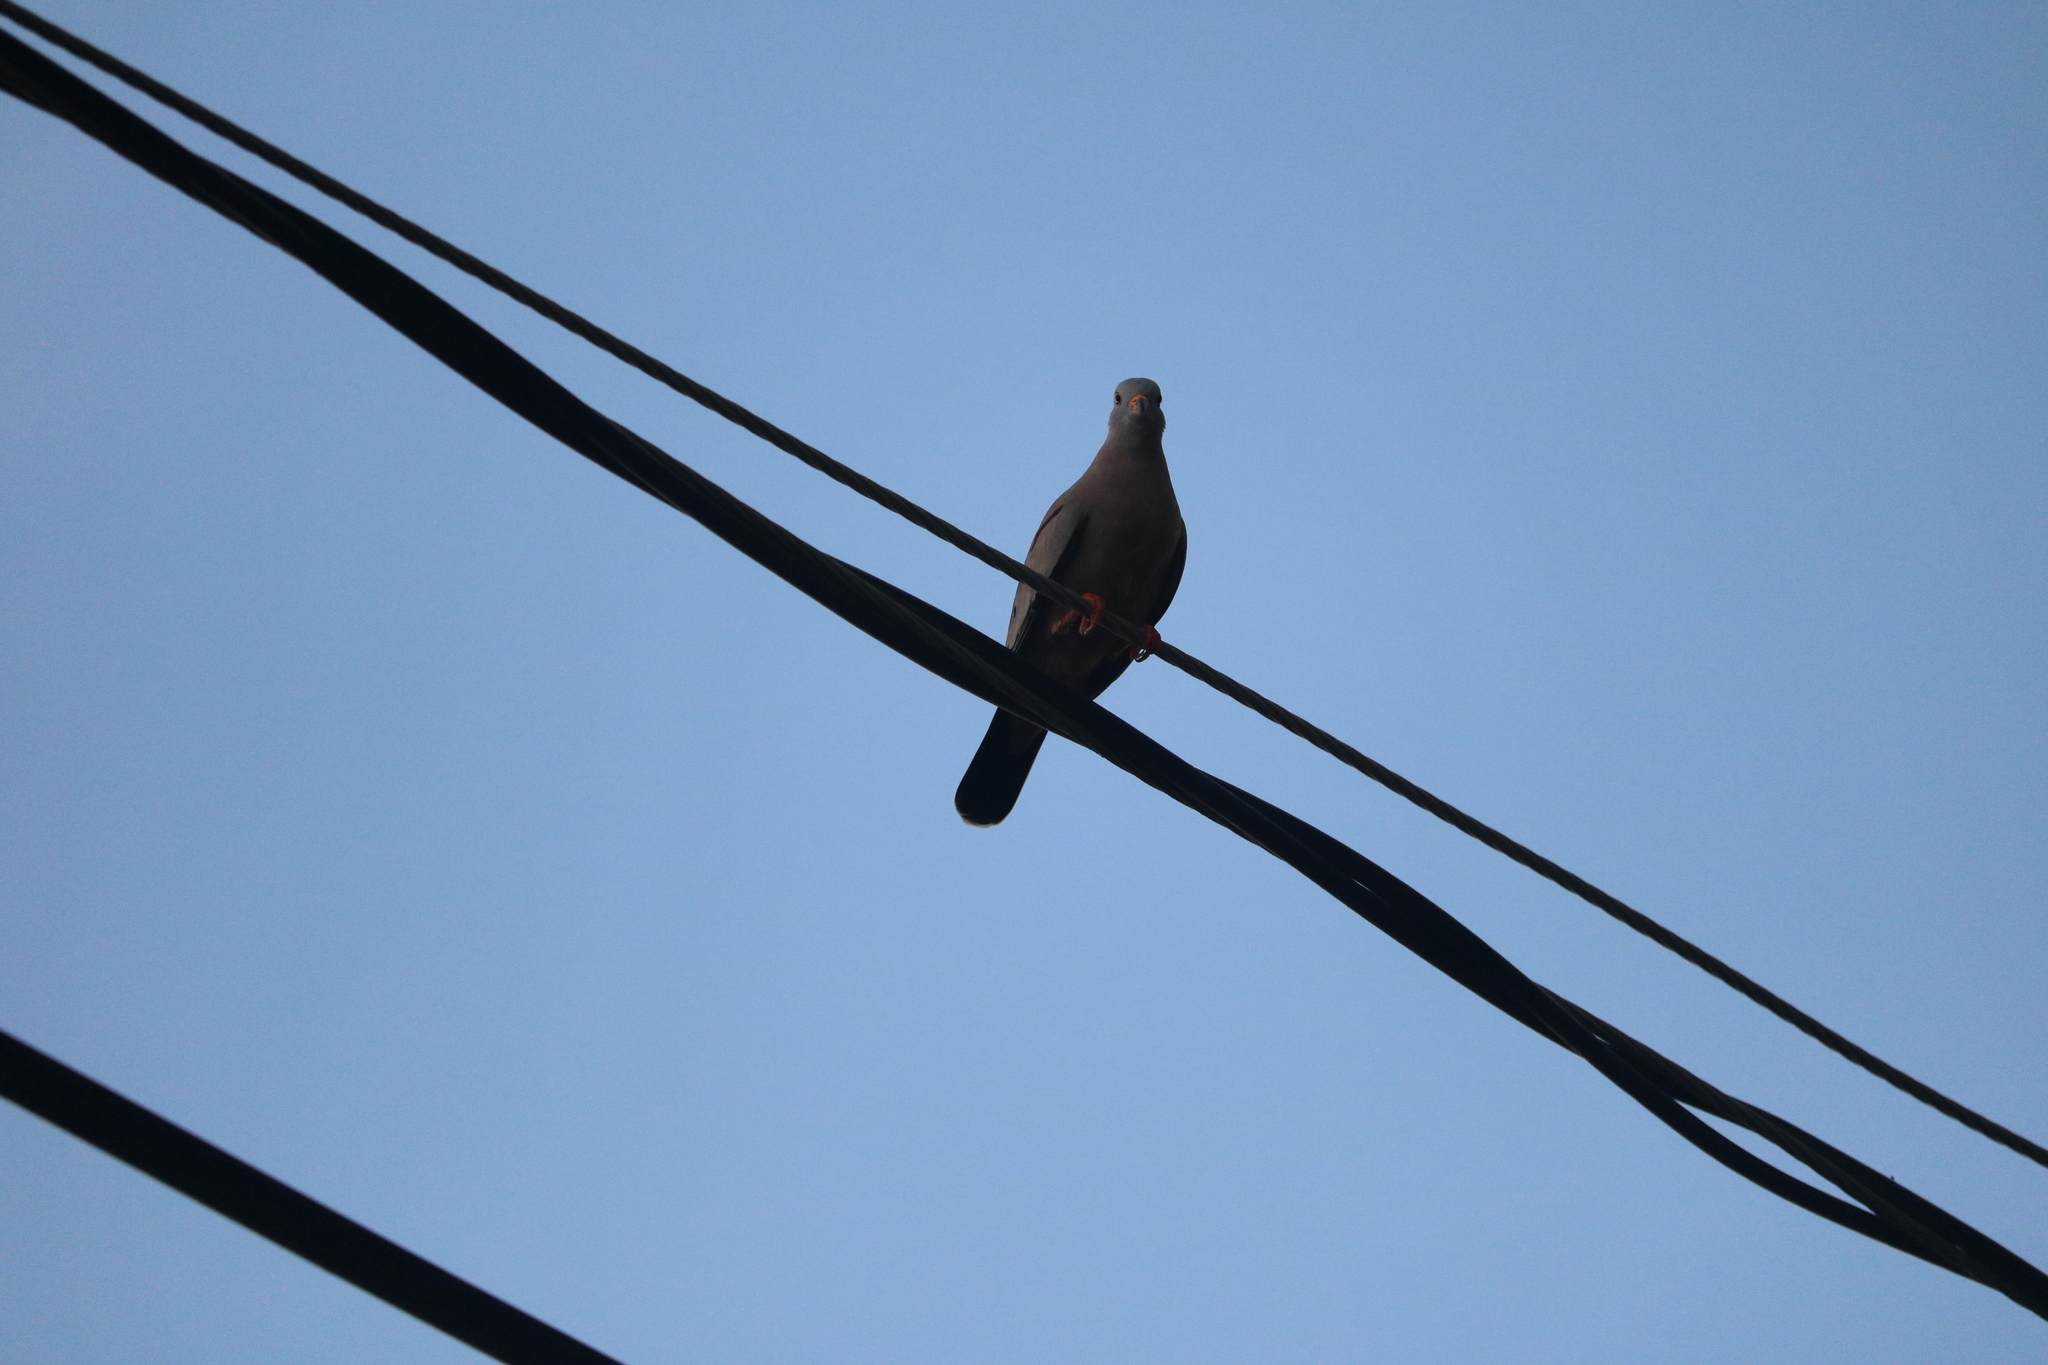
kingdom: Animalia
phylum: Chordata
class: Aves
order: Columbiformes
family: Columbidae
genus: Columbina
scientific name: Columbina cruziana
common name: Croaking ground dove
